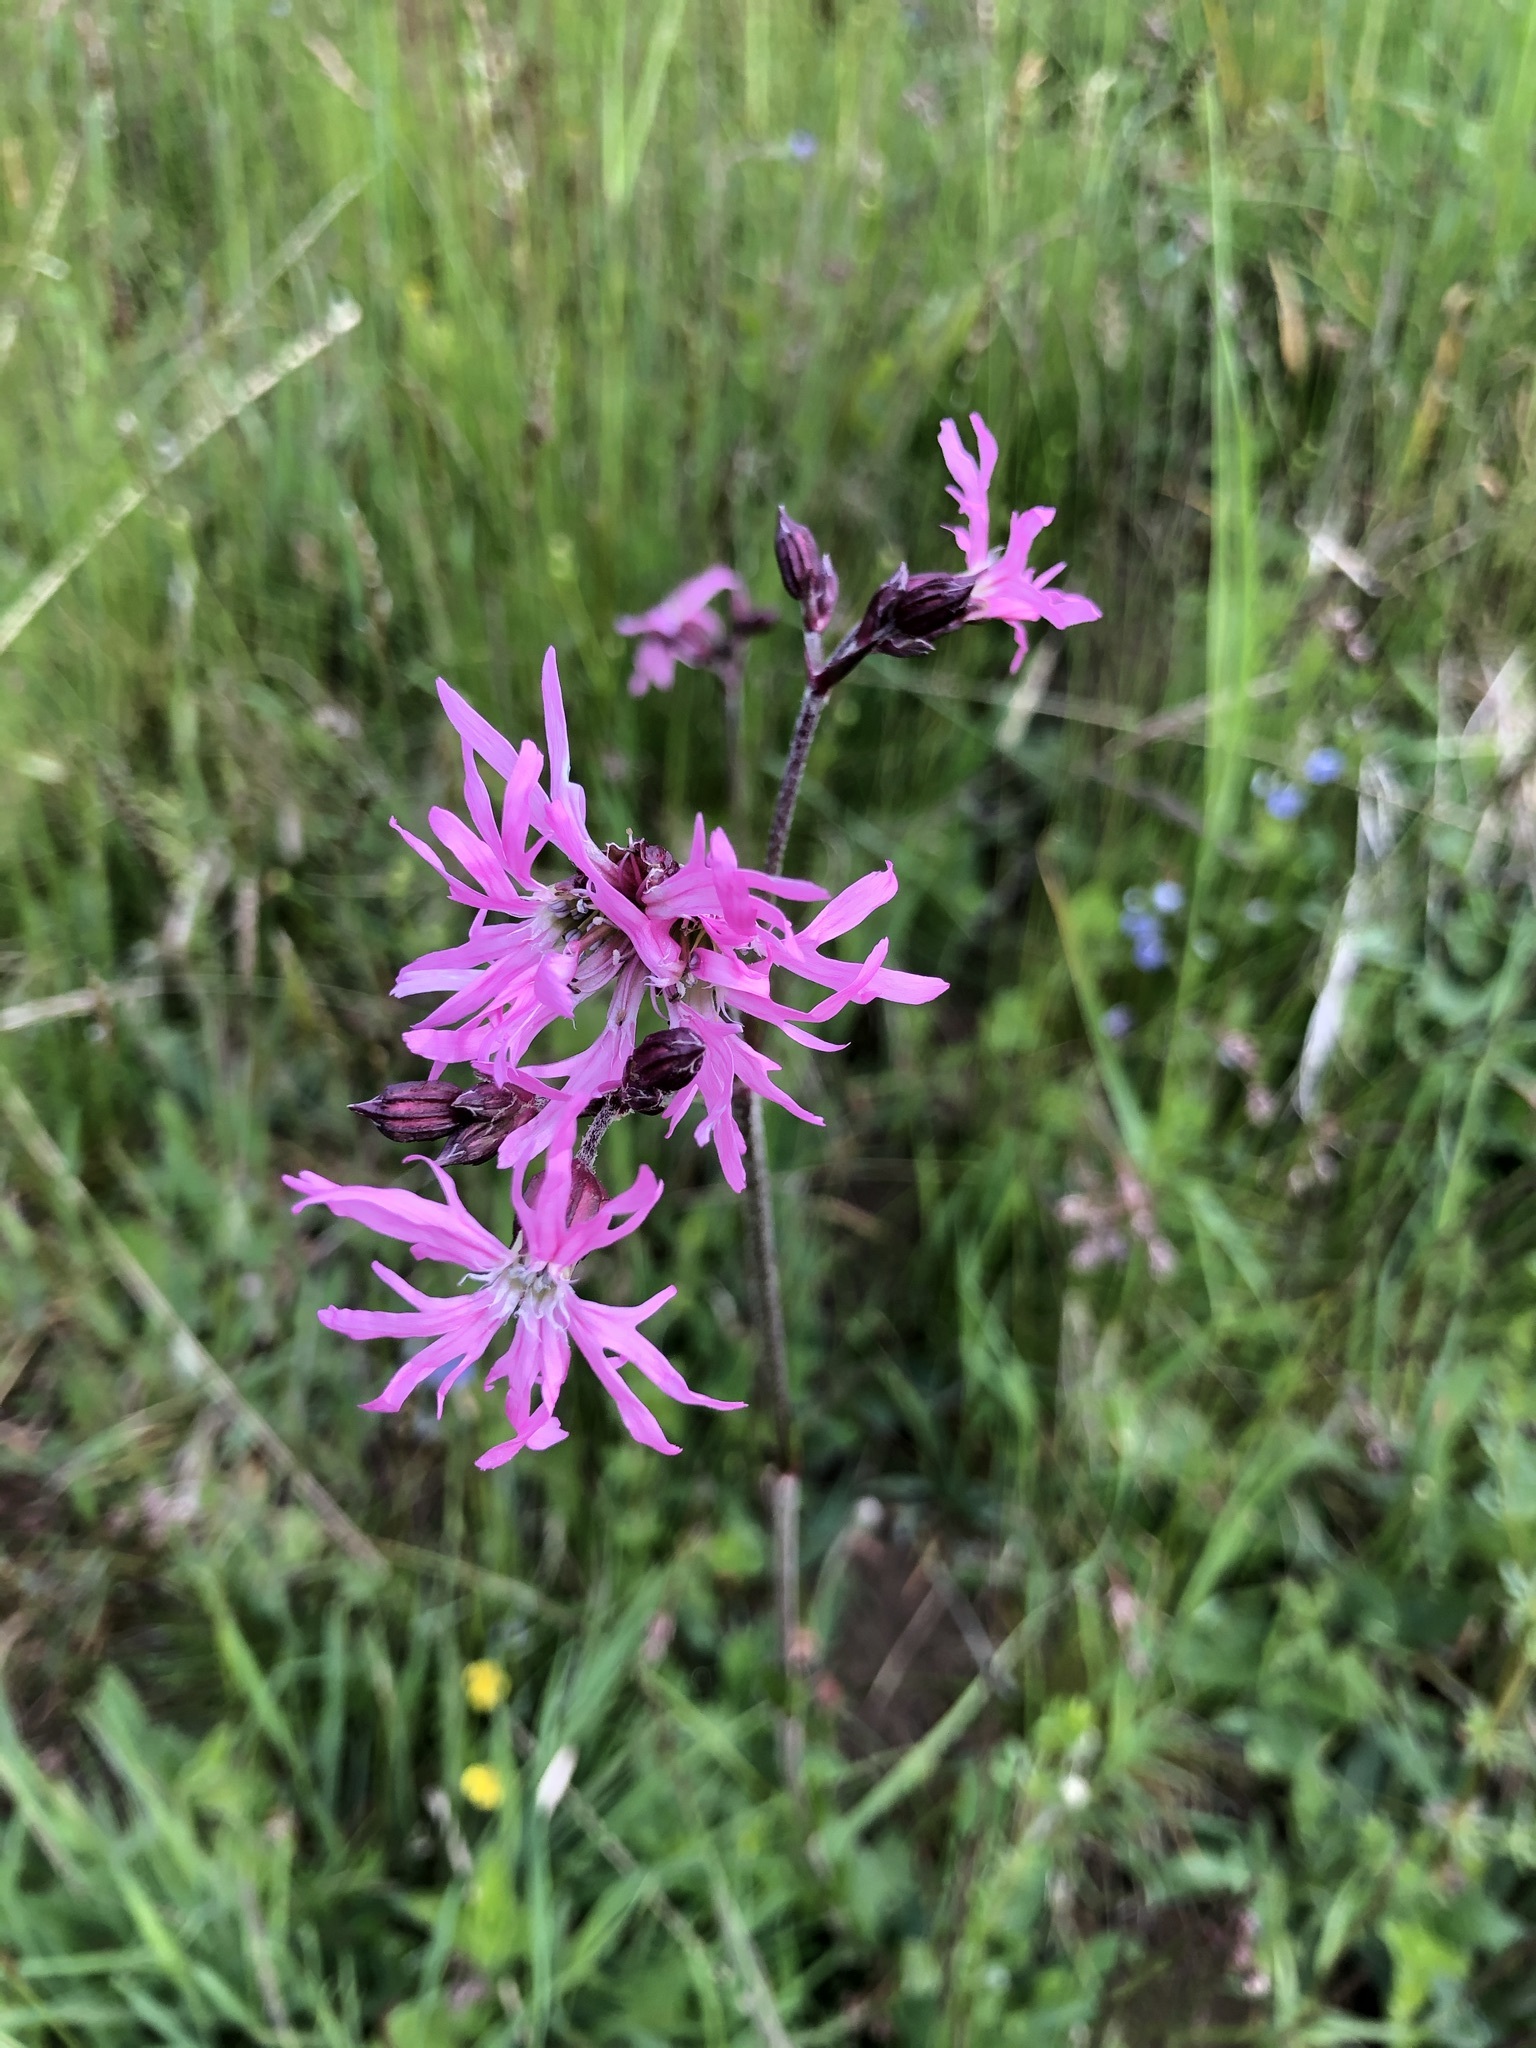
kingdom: Plantae
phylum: Tracheophyta
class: Magnoliopsida
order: Caryophyllales
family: Caryophyllaceae
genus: Silene
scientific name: Silene flos-cuculi
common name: Ragged-robin
